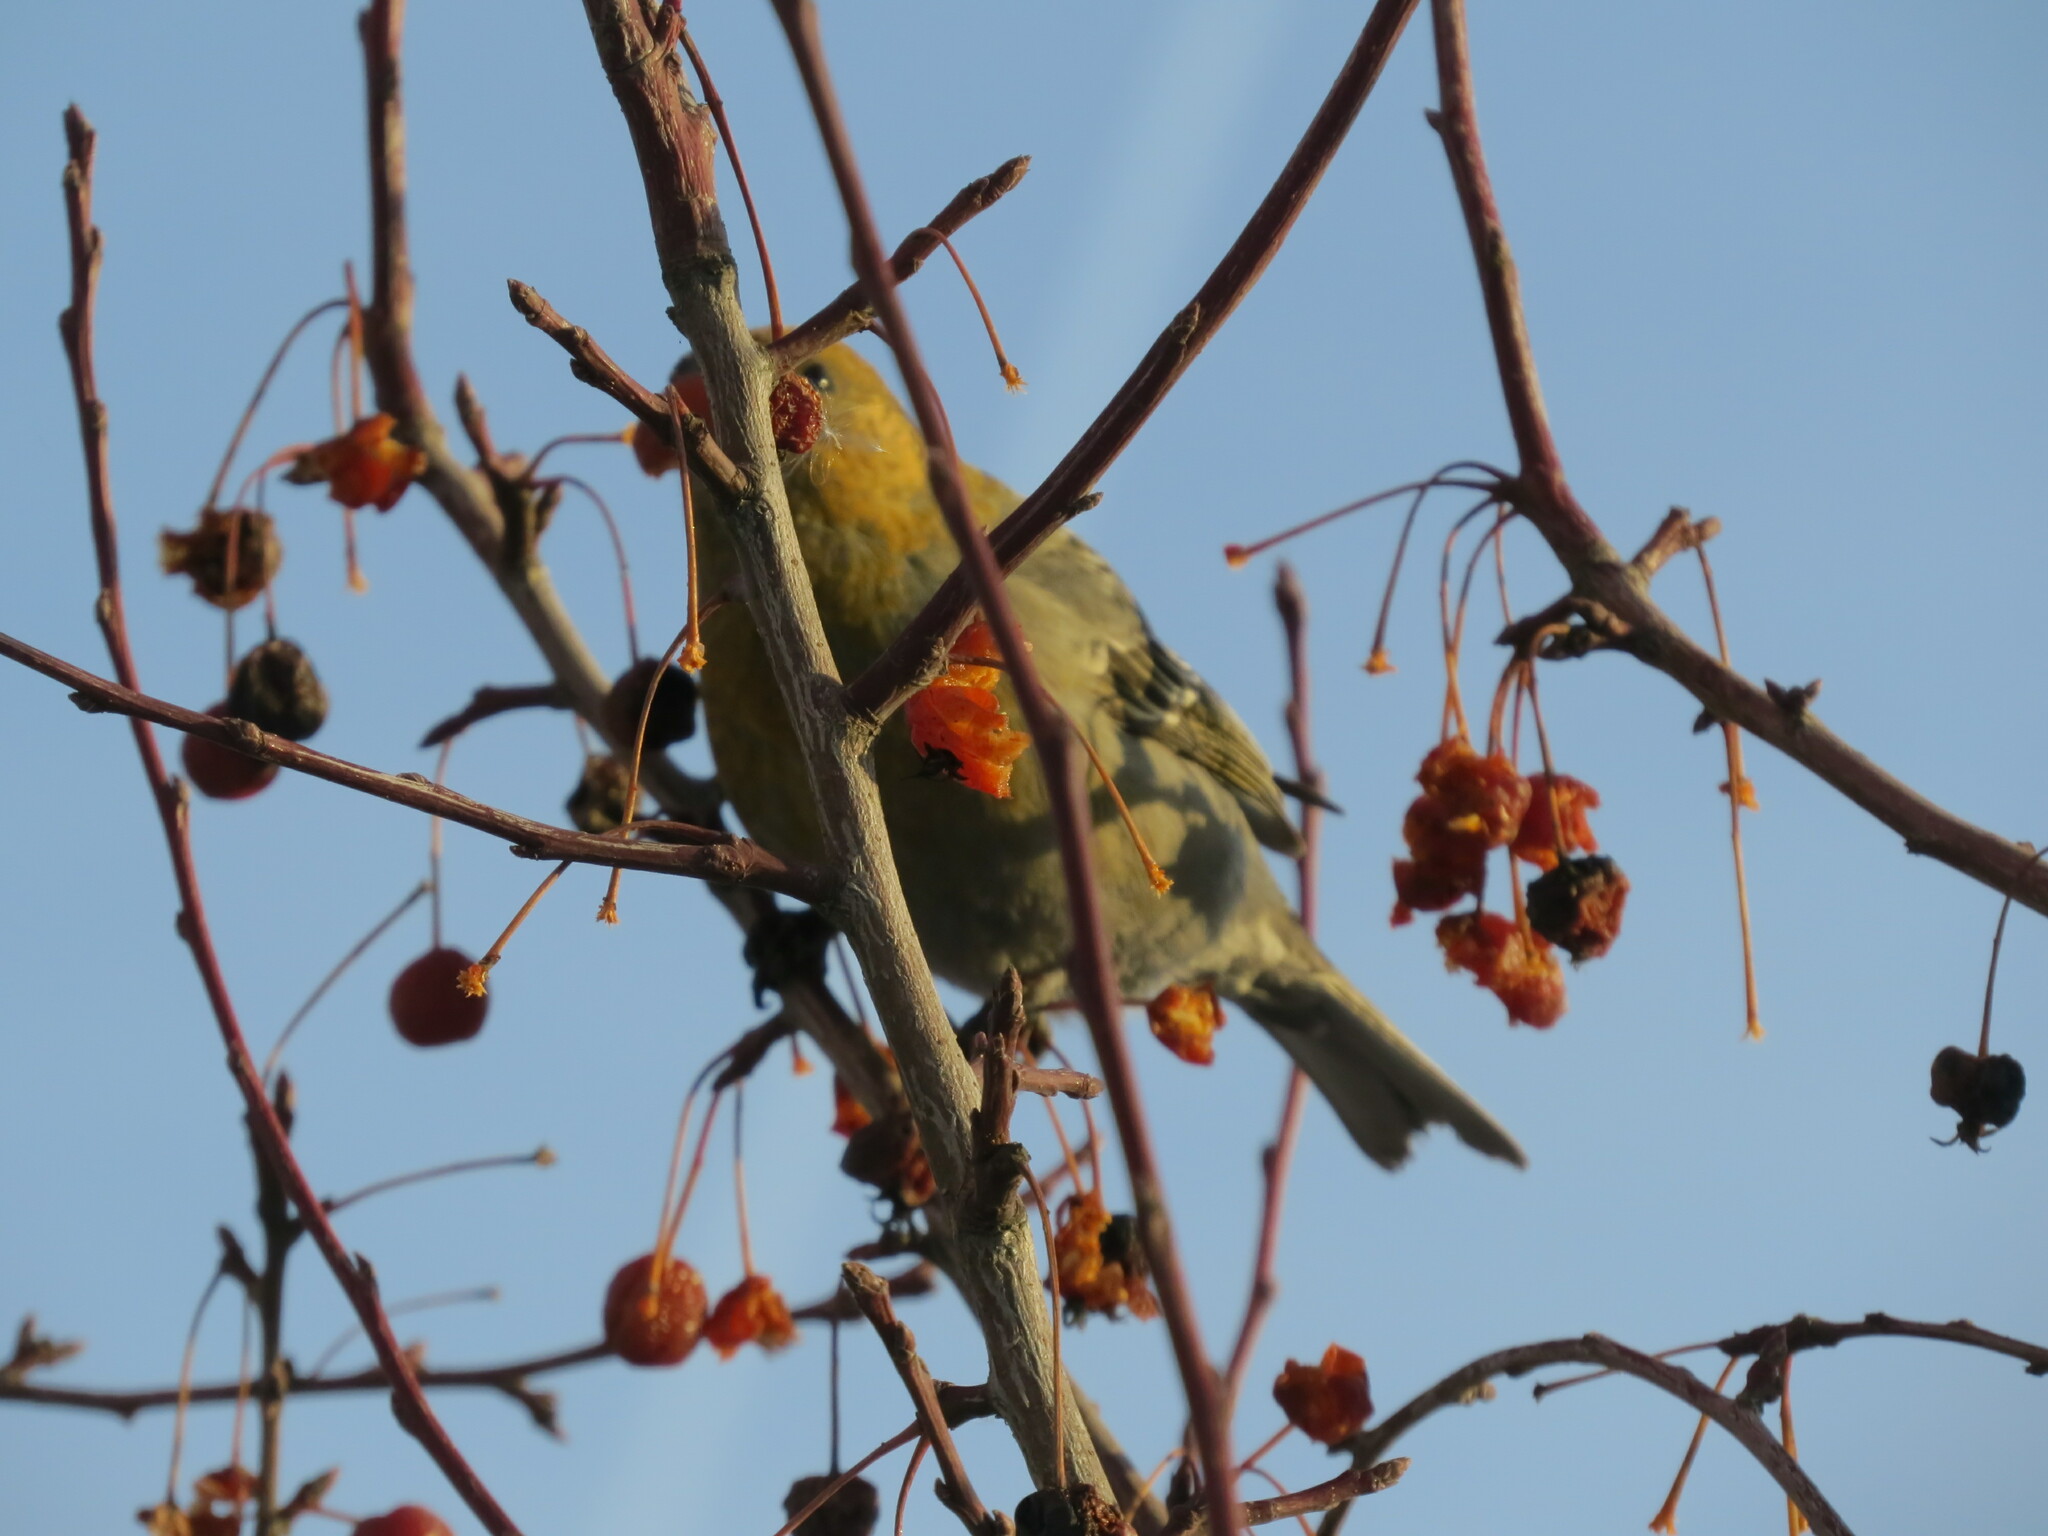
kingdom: Animalia
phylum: Chordata
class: Aves
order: Passeriformes
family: Fringillidae
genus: Pinicola
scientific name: Pinicola enucleator
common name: Pine grosbeak
